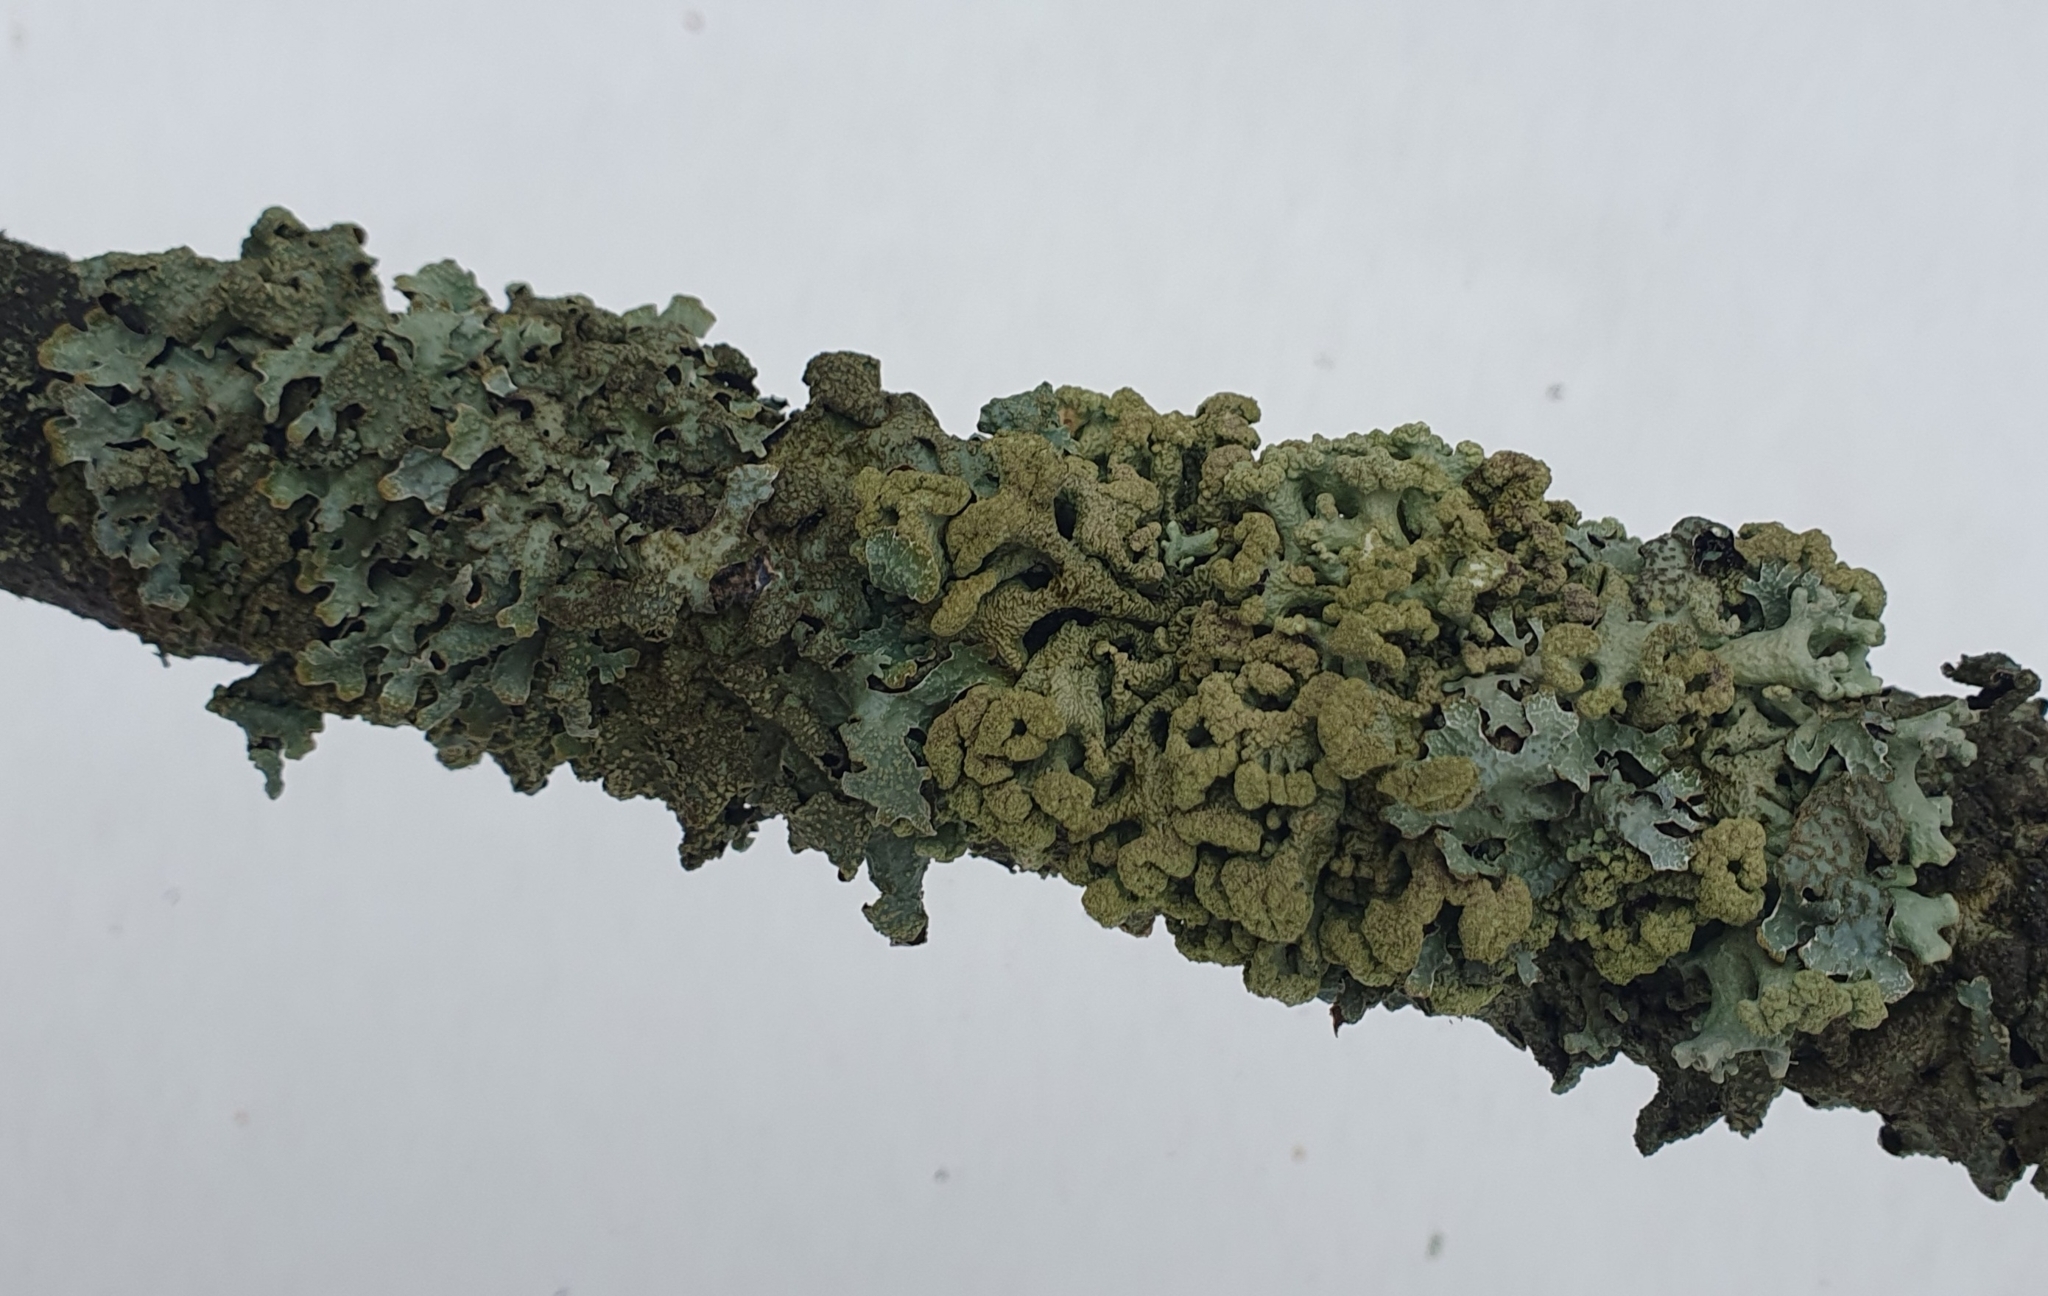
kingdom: Fungi
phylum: Ascomycota
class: Lecanoromycetes
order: Lecanorales
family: Parmeliaceae
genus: Hypogymnia
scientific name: Hypogymnia tubulosa
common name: Powder-headed tube lichen
